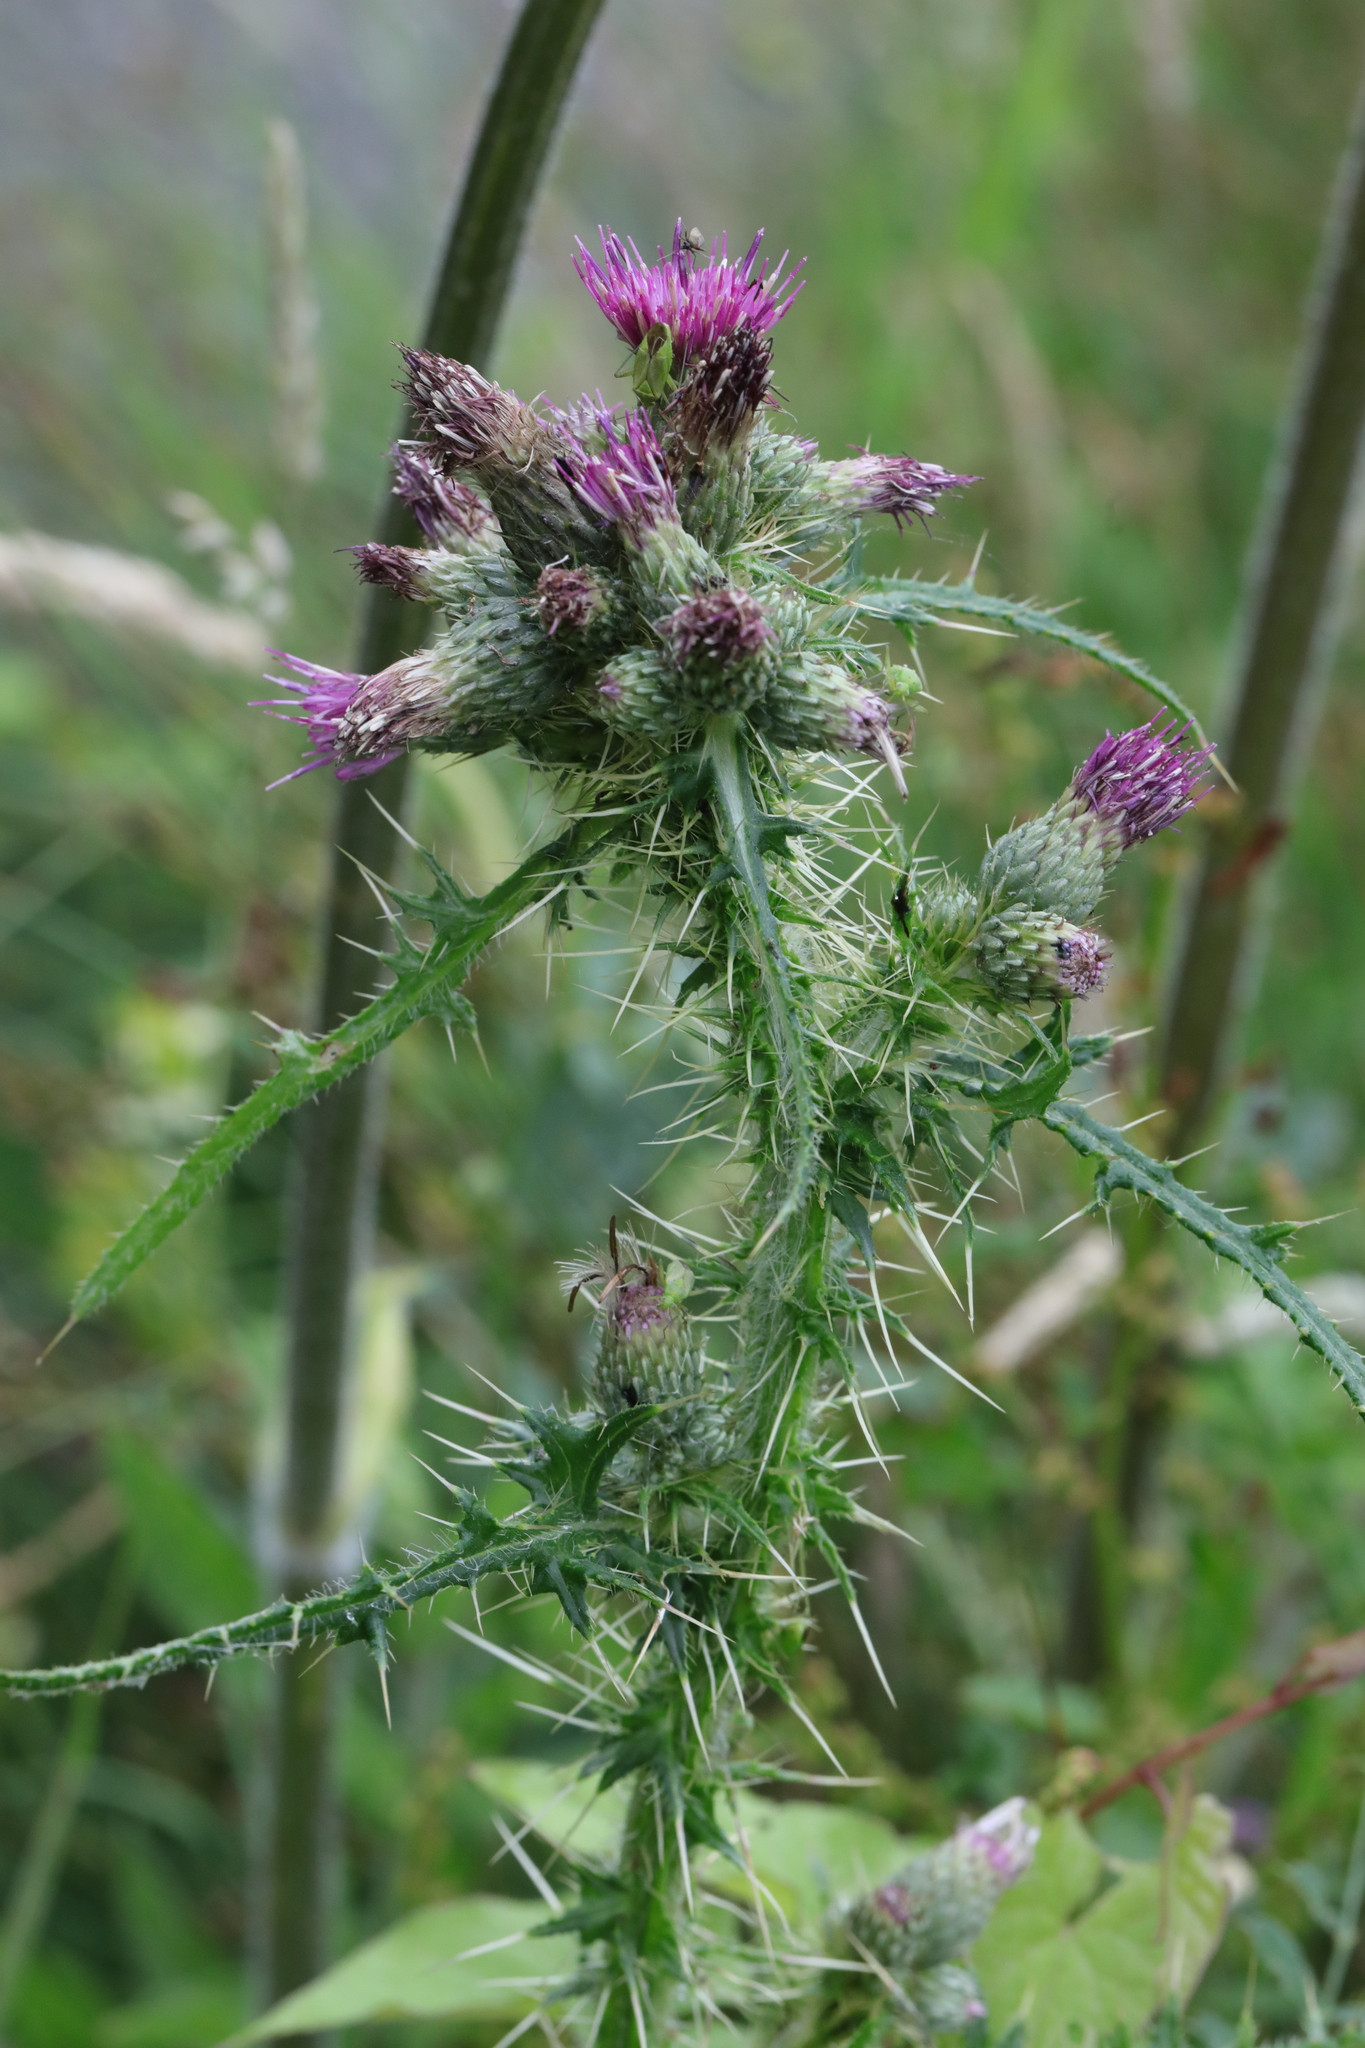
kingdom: Plantae
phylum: Tracheophyta
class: Magnoliopsida
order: Asterales
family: Asteraceae
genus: Cirsium
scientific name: Cirsium palustre
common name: Marsh thistle
